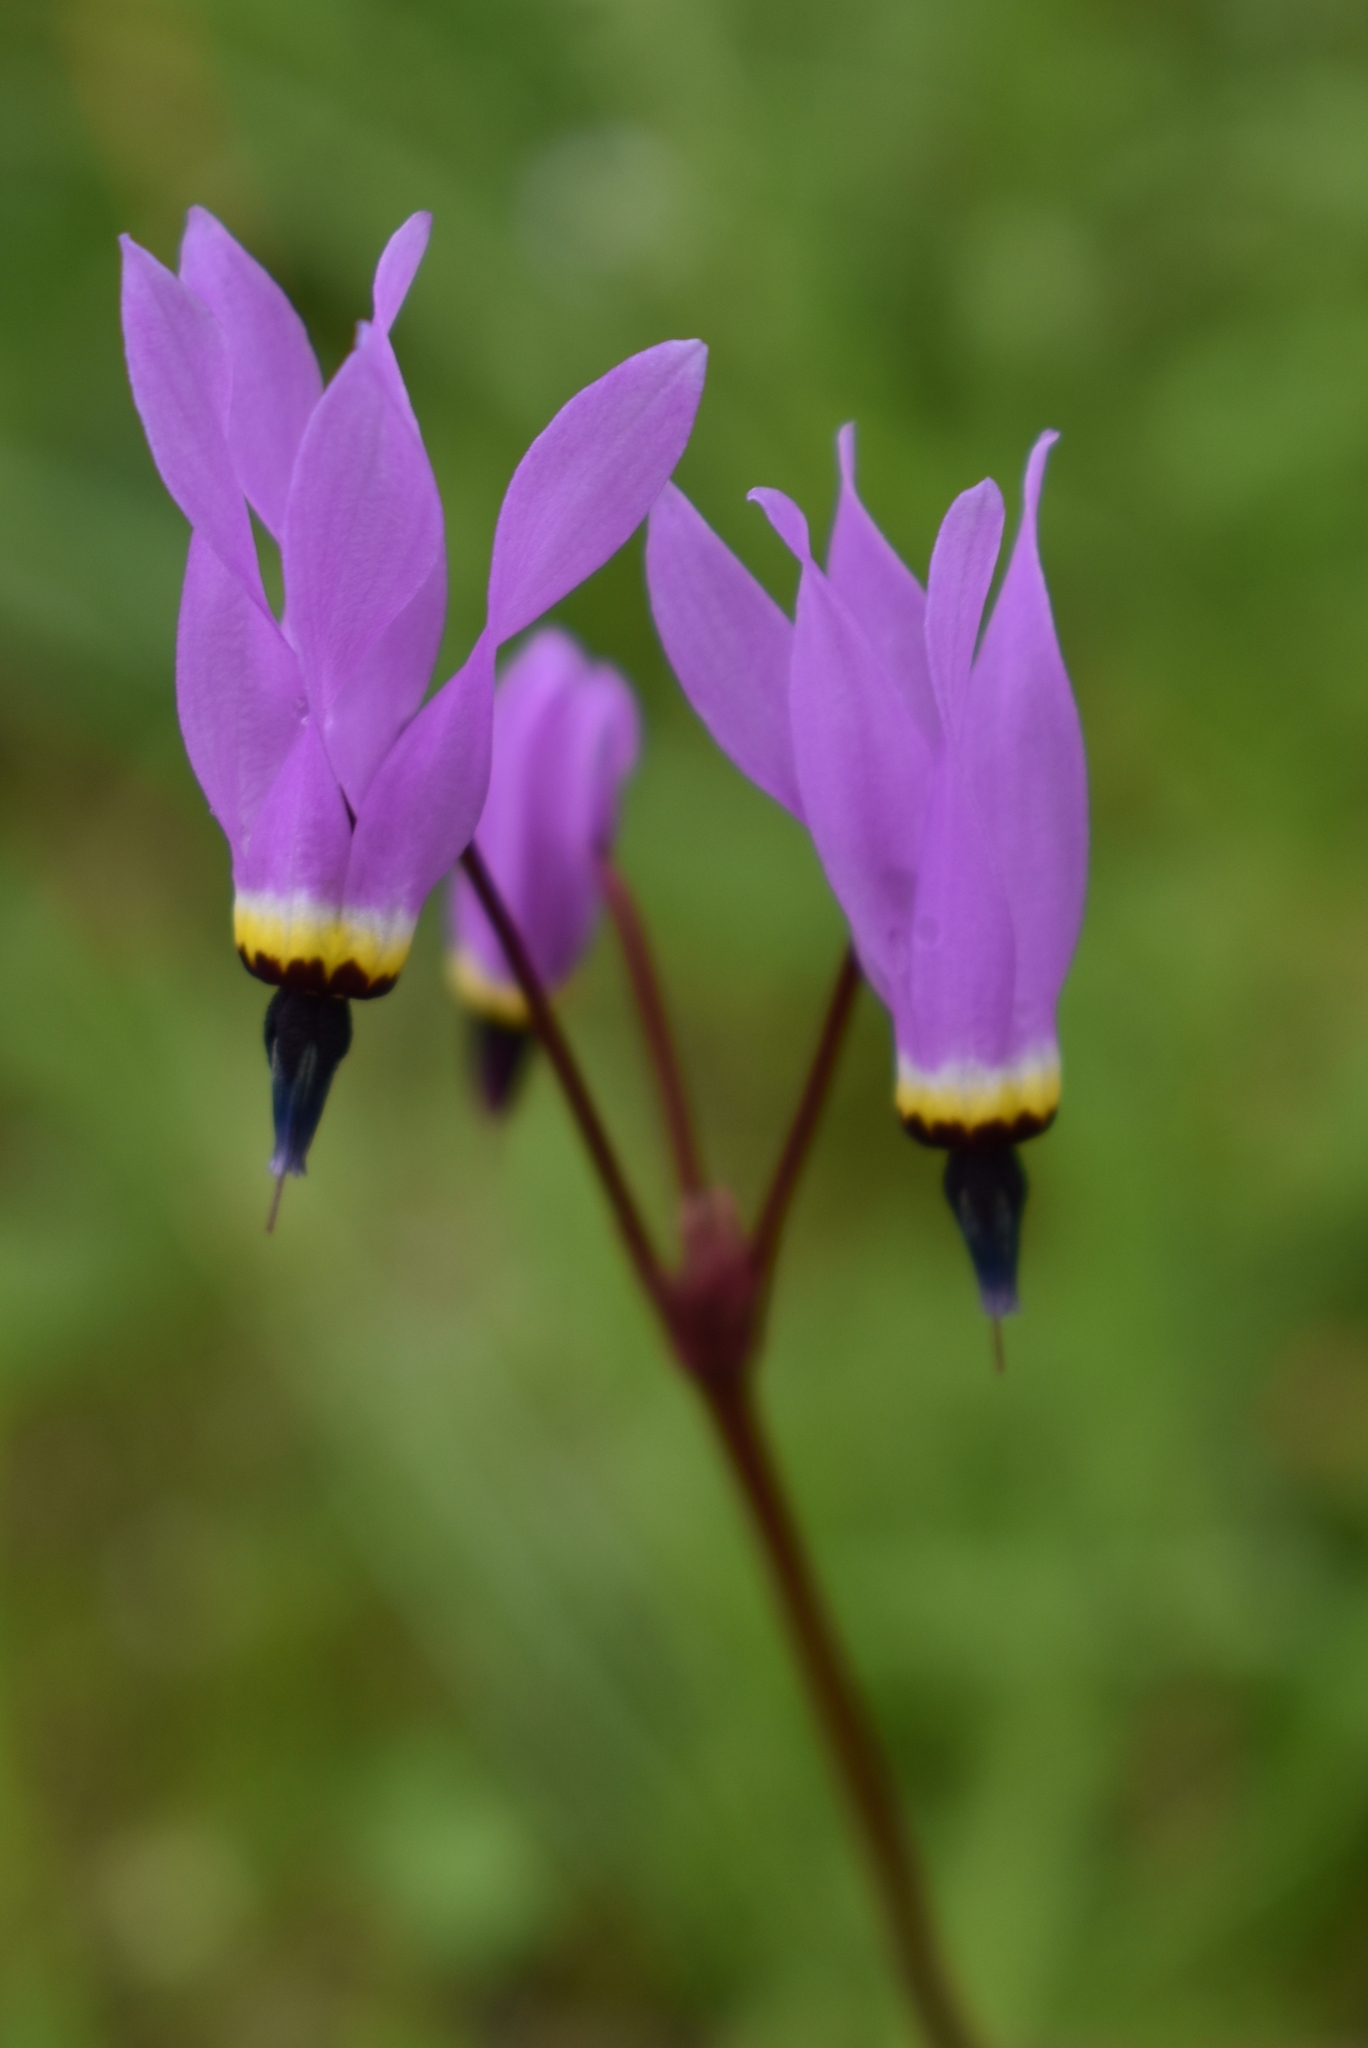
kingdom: Plantae
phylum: Tracheophyta
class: Magnoliopsida
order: Ericales
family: Primulaceae
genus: Dodecatheon
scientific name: Dodecatheon hendersonii
